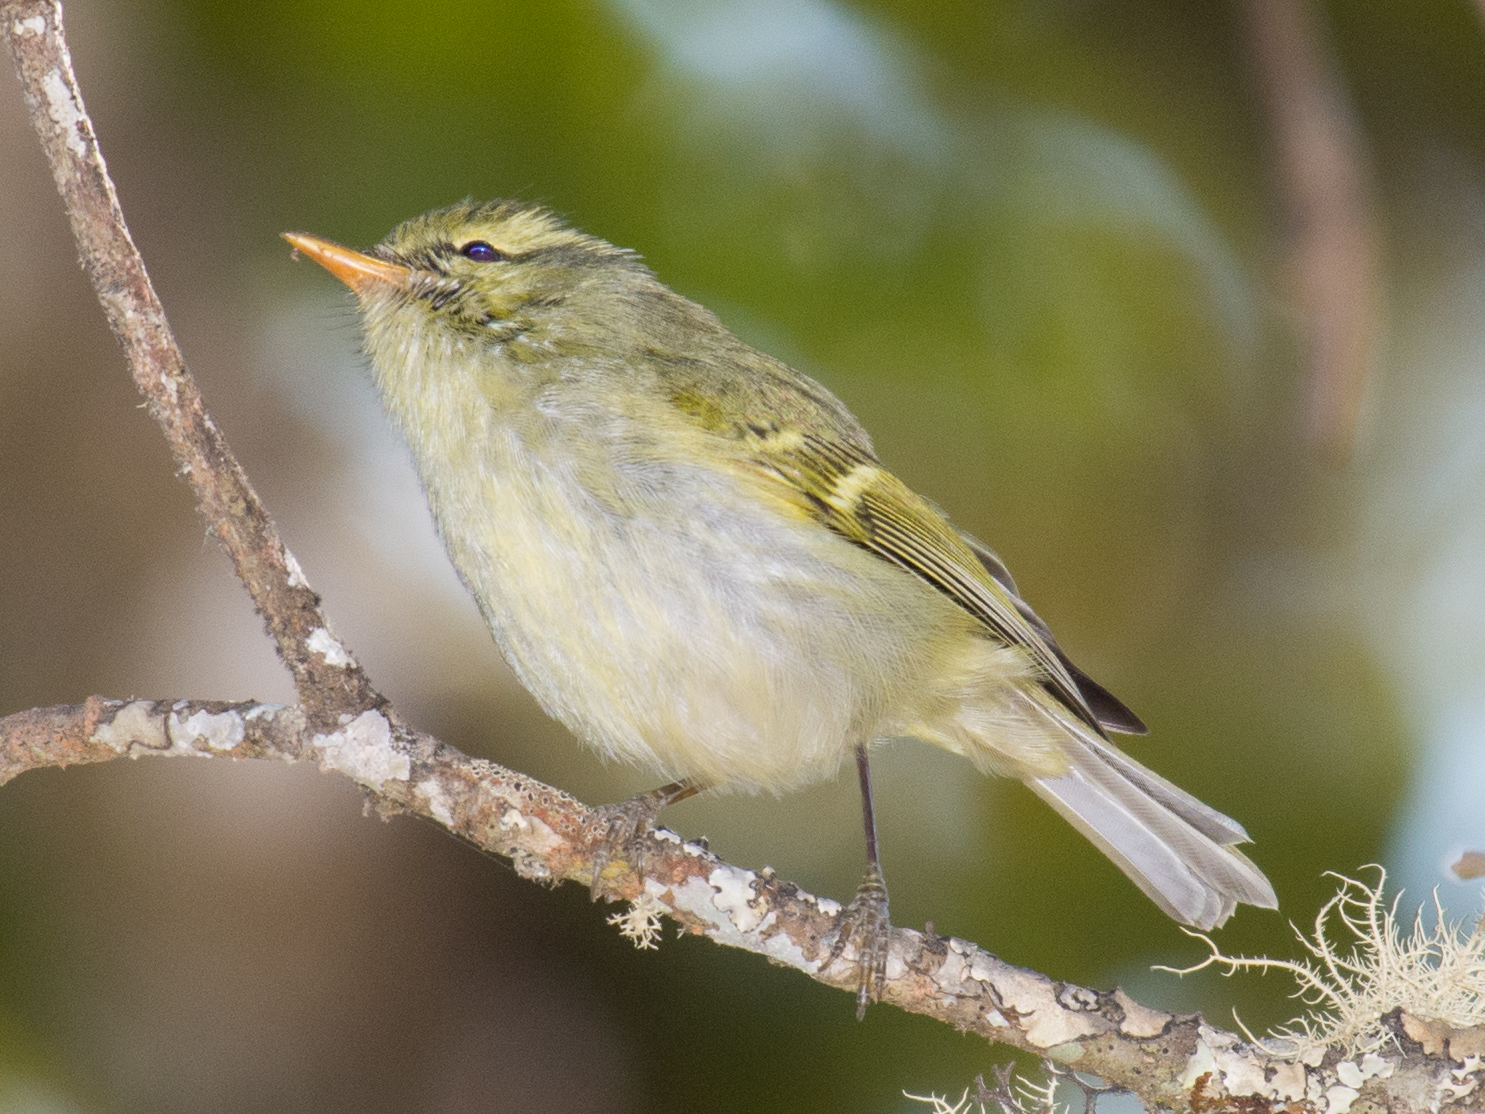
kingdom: Animalia
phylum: Chordata
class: Aves
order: Passeriformes
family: Phylloscopidae
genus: Phylloscopus
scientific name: Phylloscopus reguloides
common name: Blyth's leaf warbler
